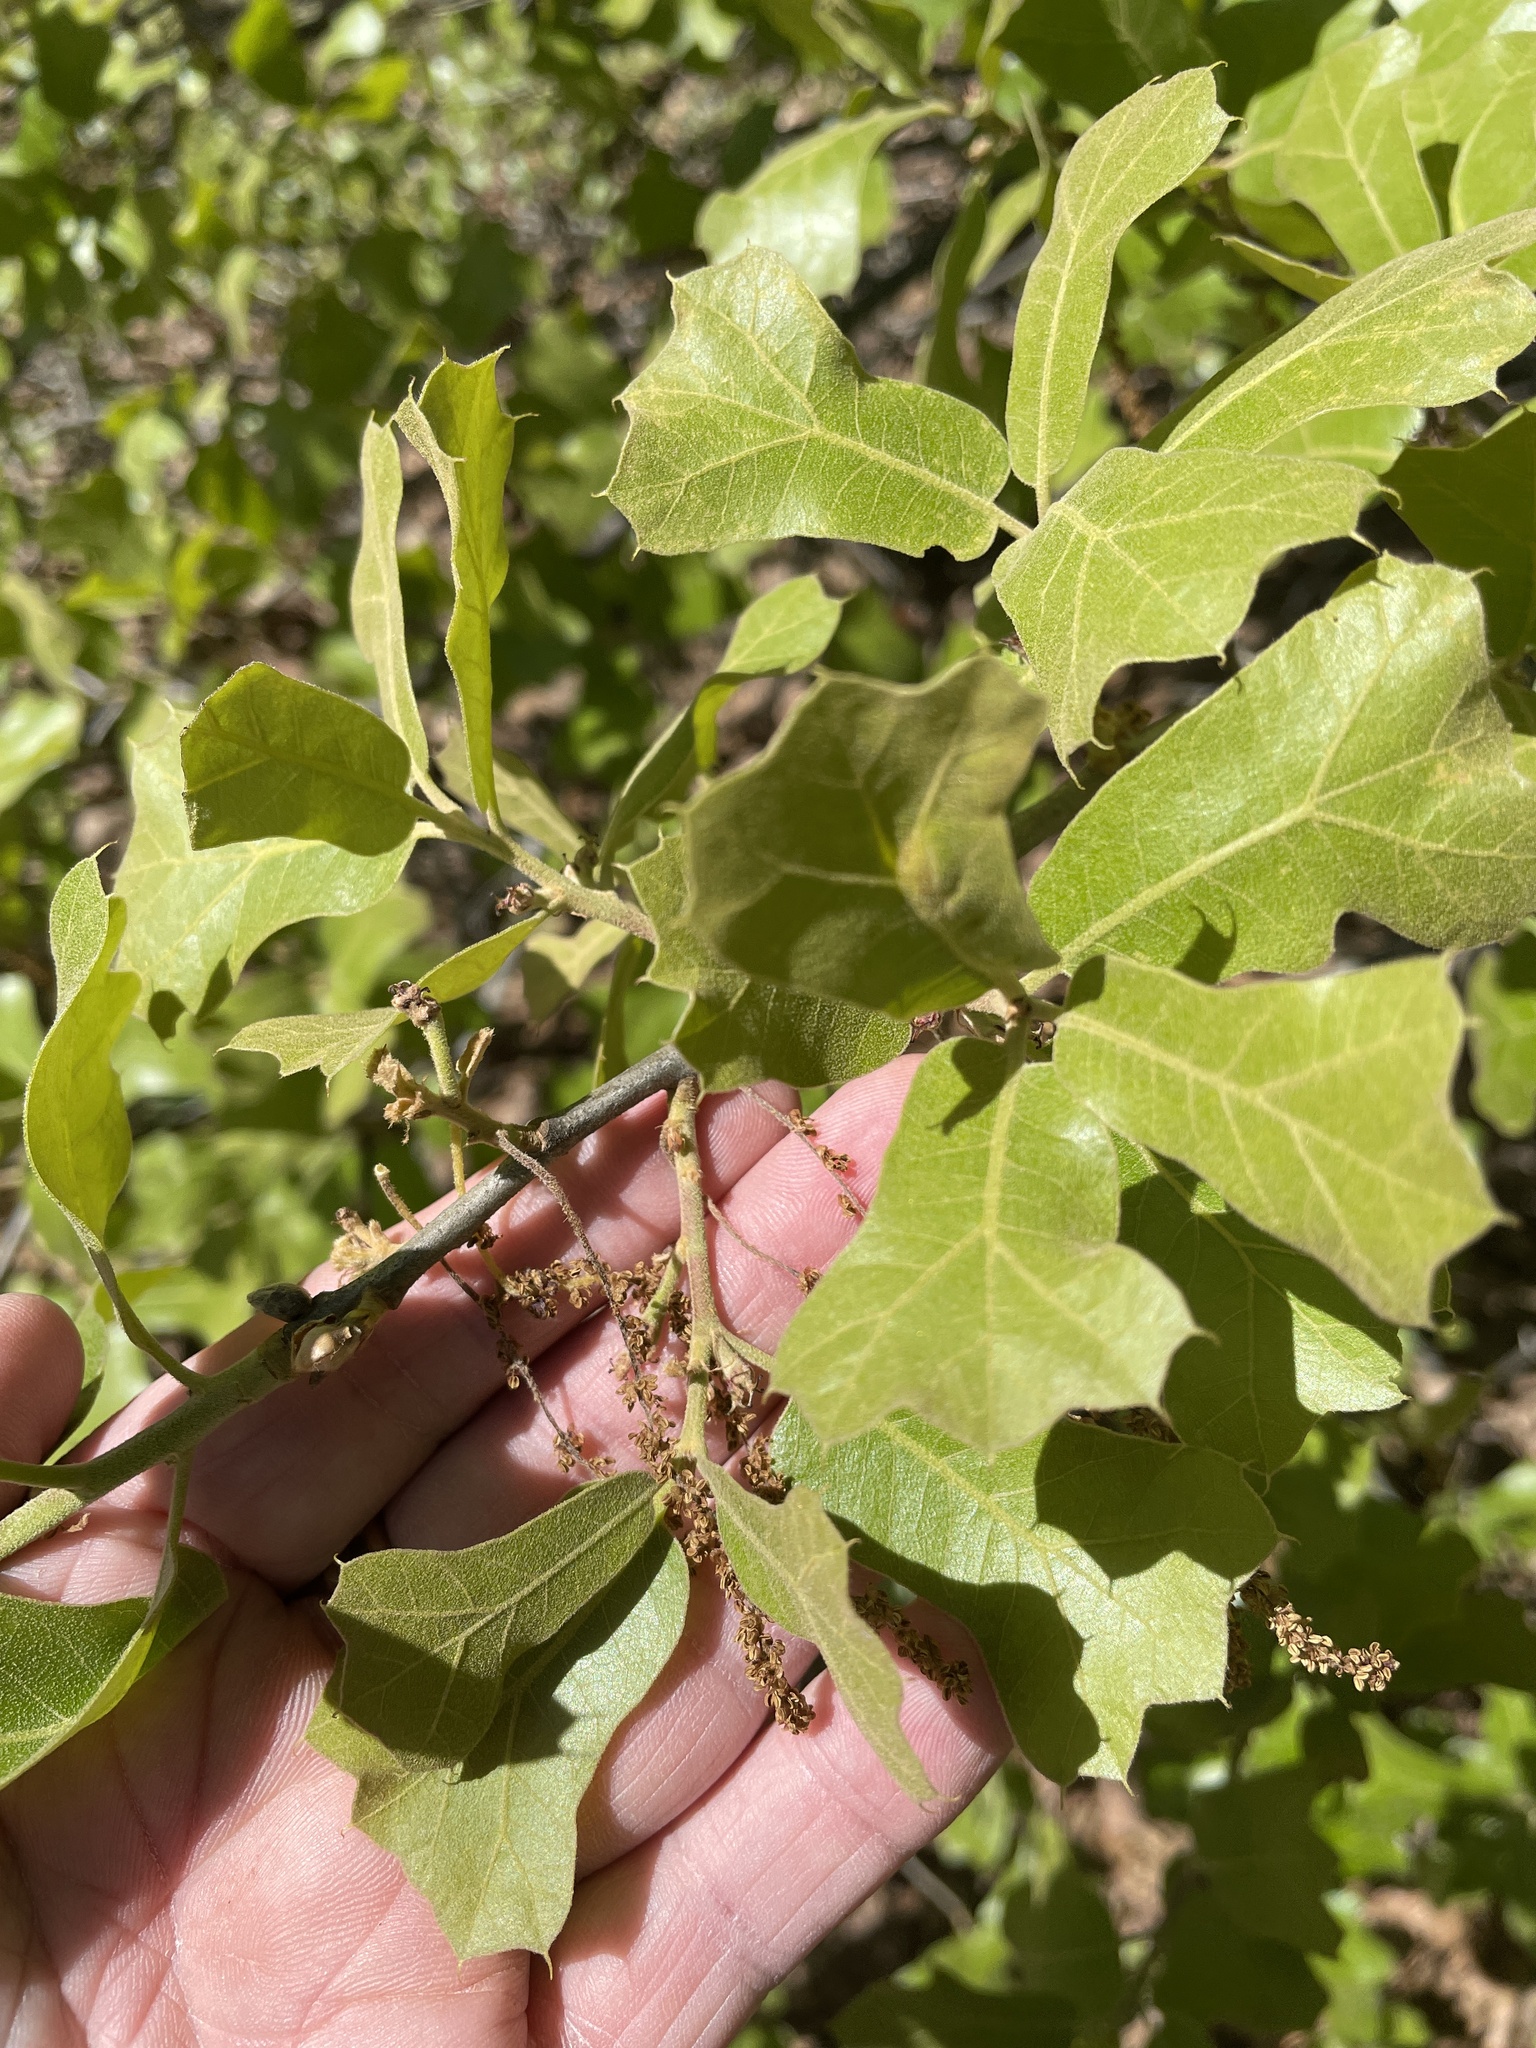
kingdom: Plantae
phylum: Tracheophyta
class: Magnoliopsida
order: Fagales
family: Fagaceae
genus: Quercus
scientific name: Quercus marilandica
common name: Blackjack oak
